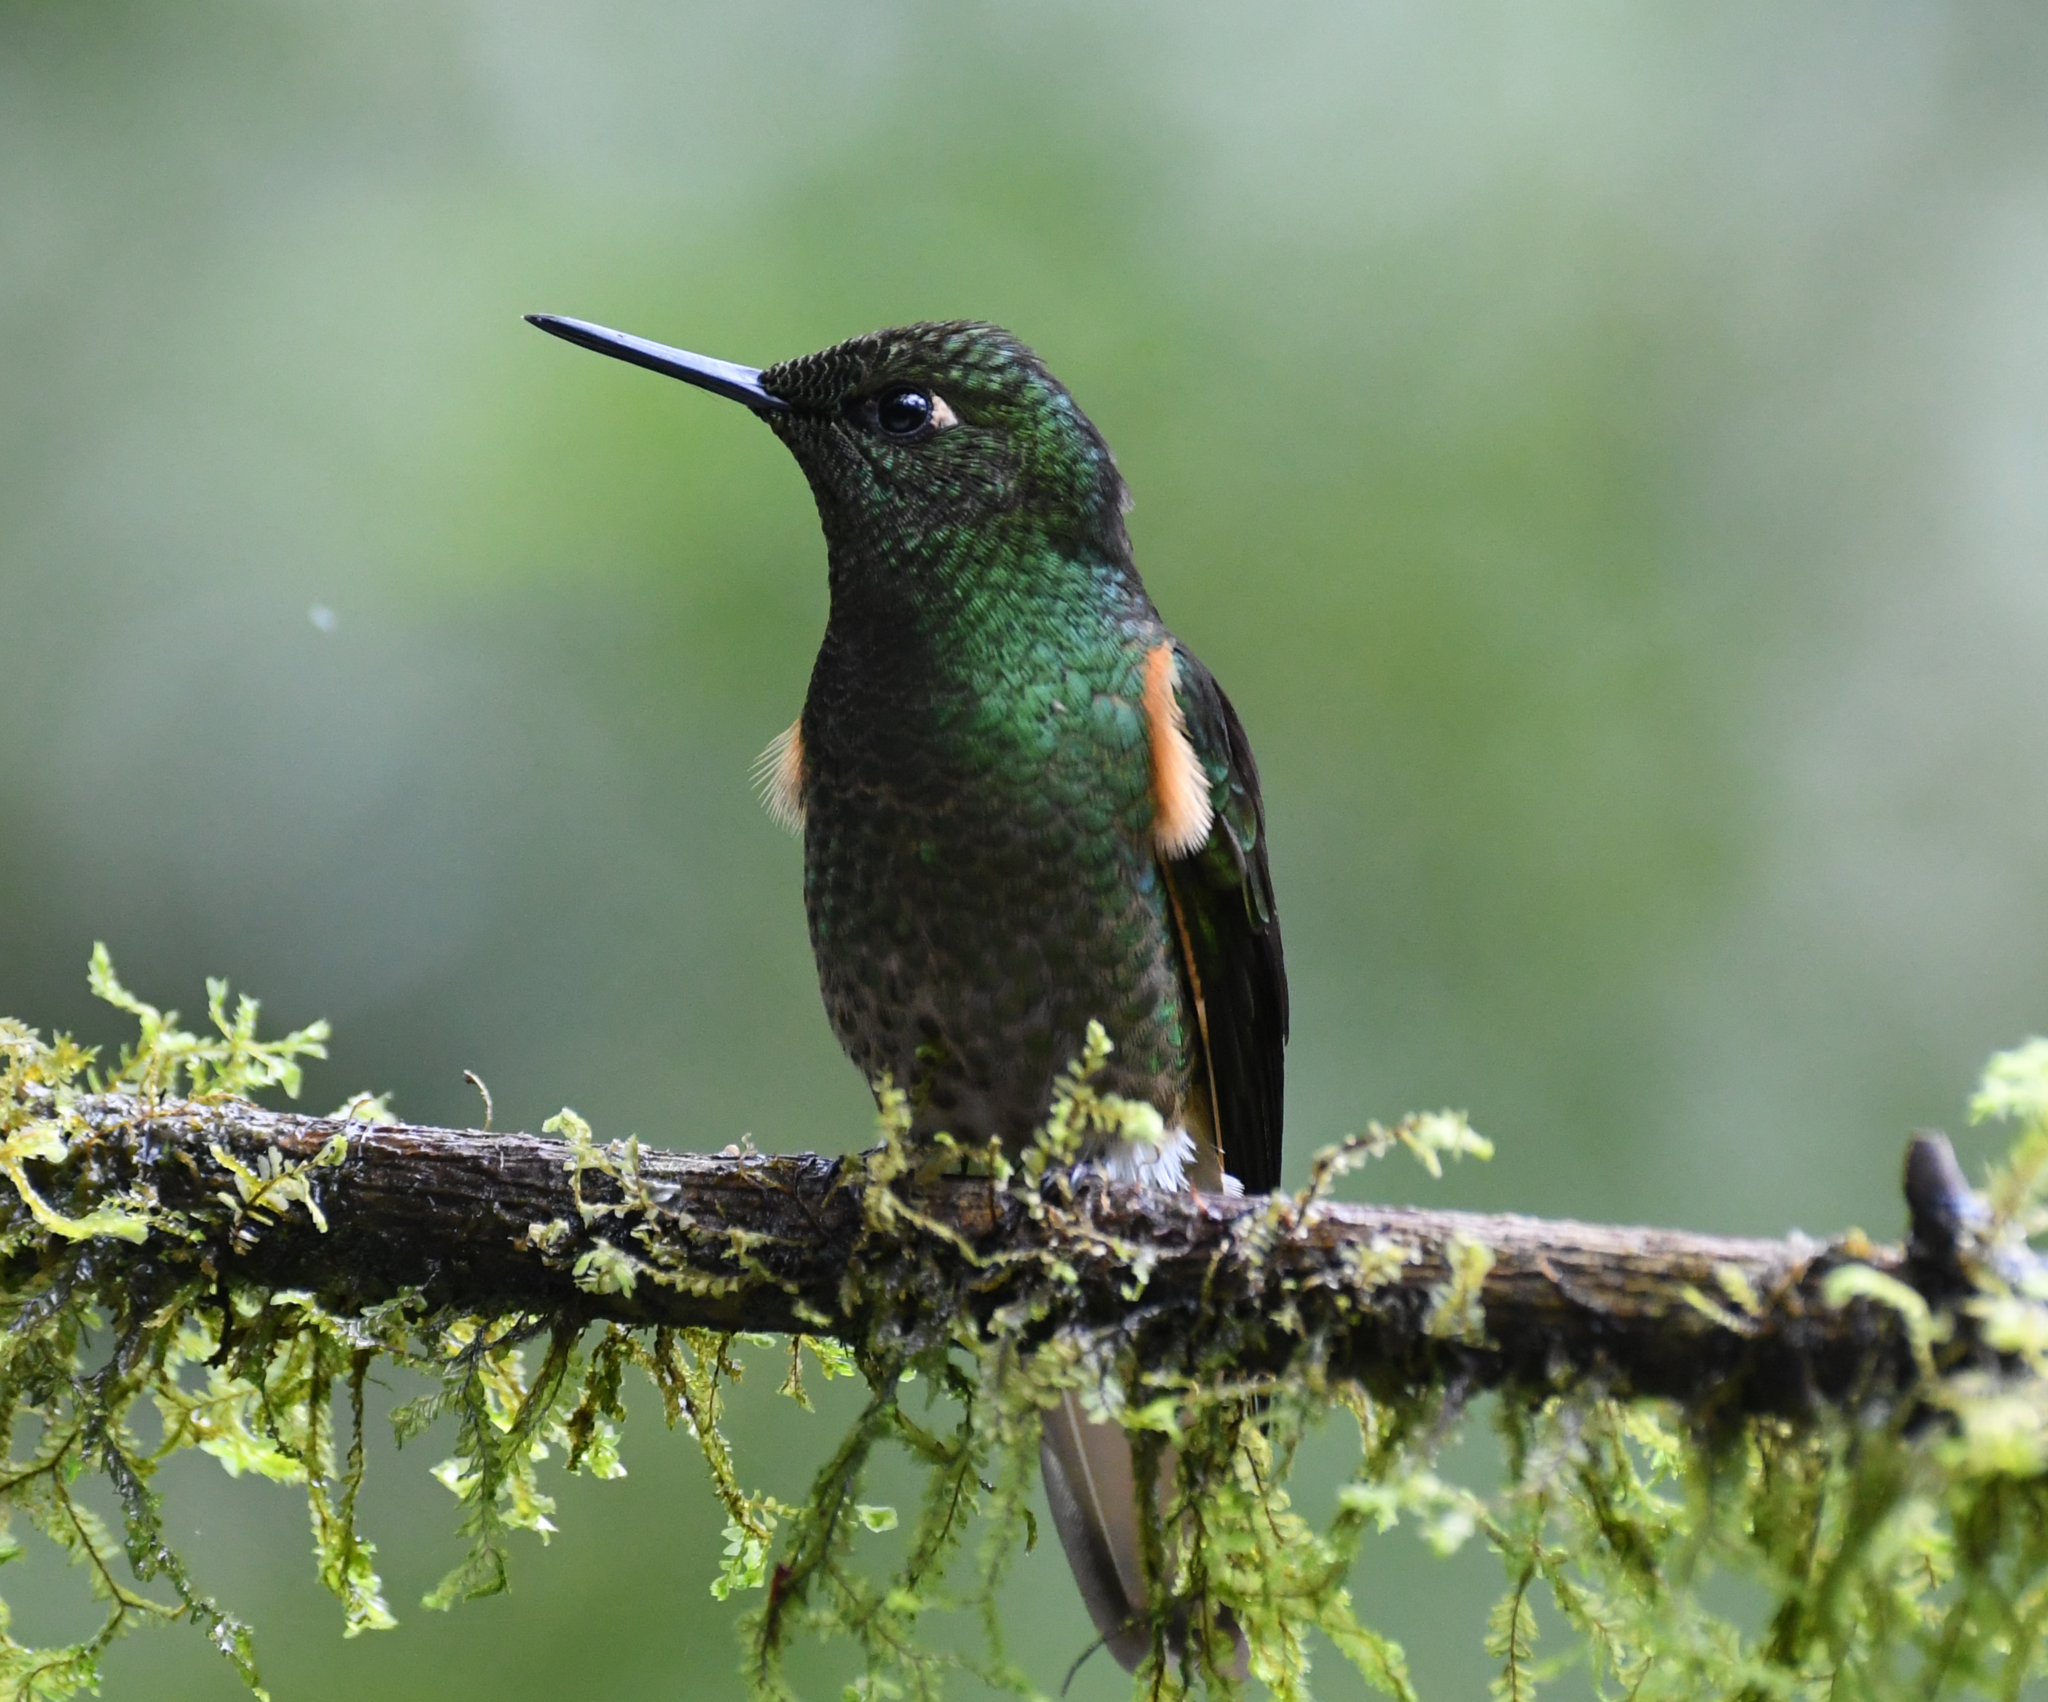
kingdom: Animalia
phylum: Chordata
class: Aves
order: Apodiformes
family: Trochilidae
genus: Boissonneaua
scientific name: Boissonneaua flavescens
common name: Buff-tailed coronet
